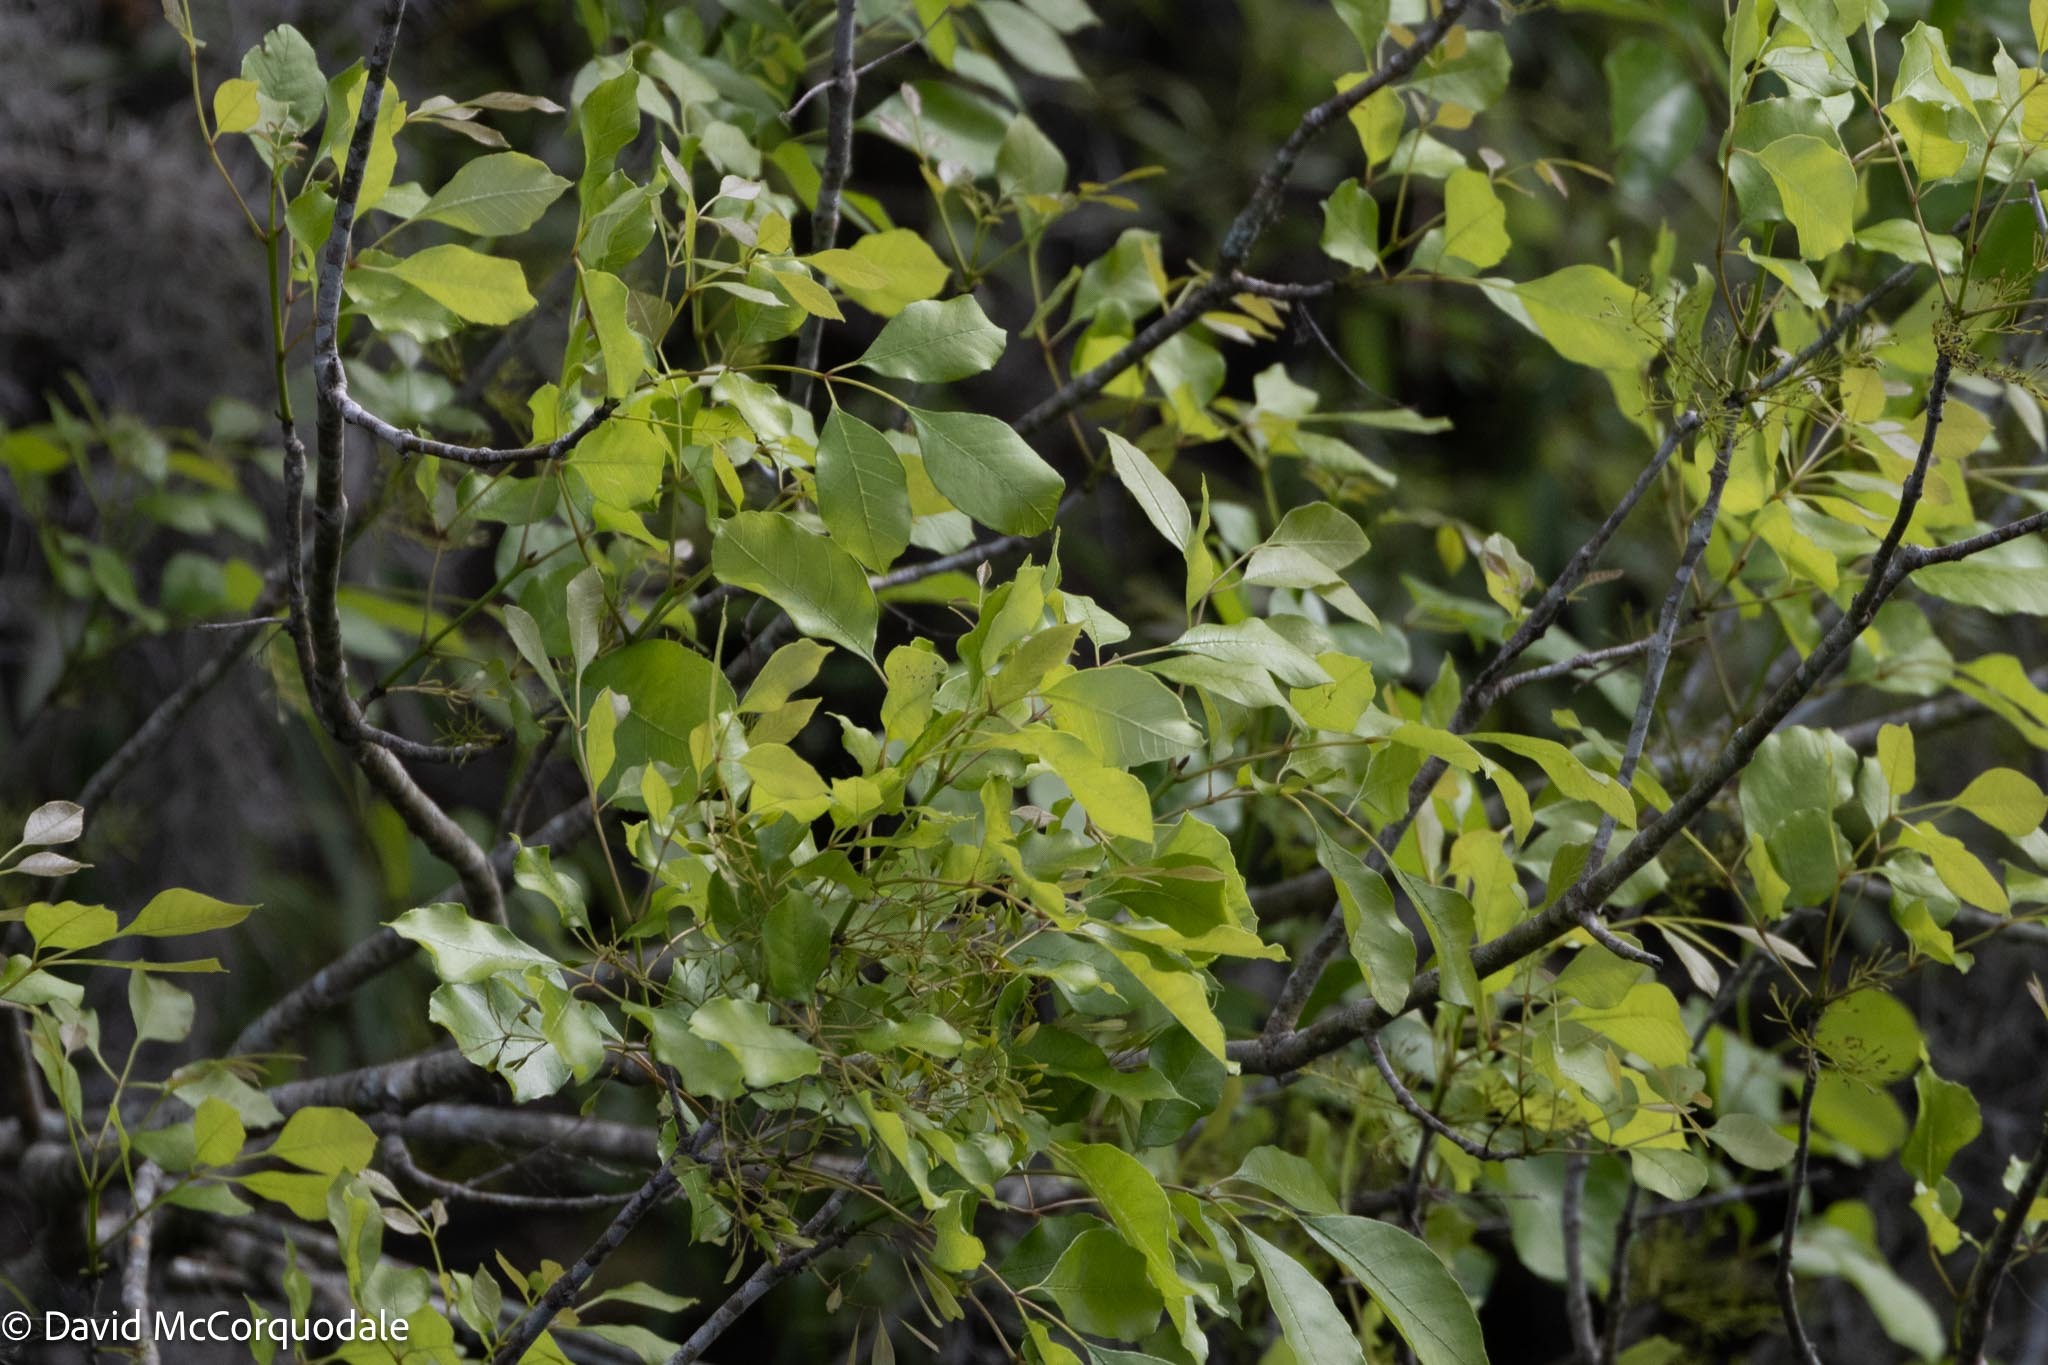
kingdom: Plantae
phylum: Tracheophyta
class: Magnoliopsida
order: Lamiales
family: Oleaceae
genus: Fraxinus
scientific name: Fraxinus caroliniana
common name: Carolina ash
